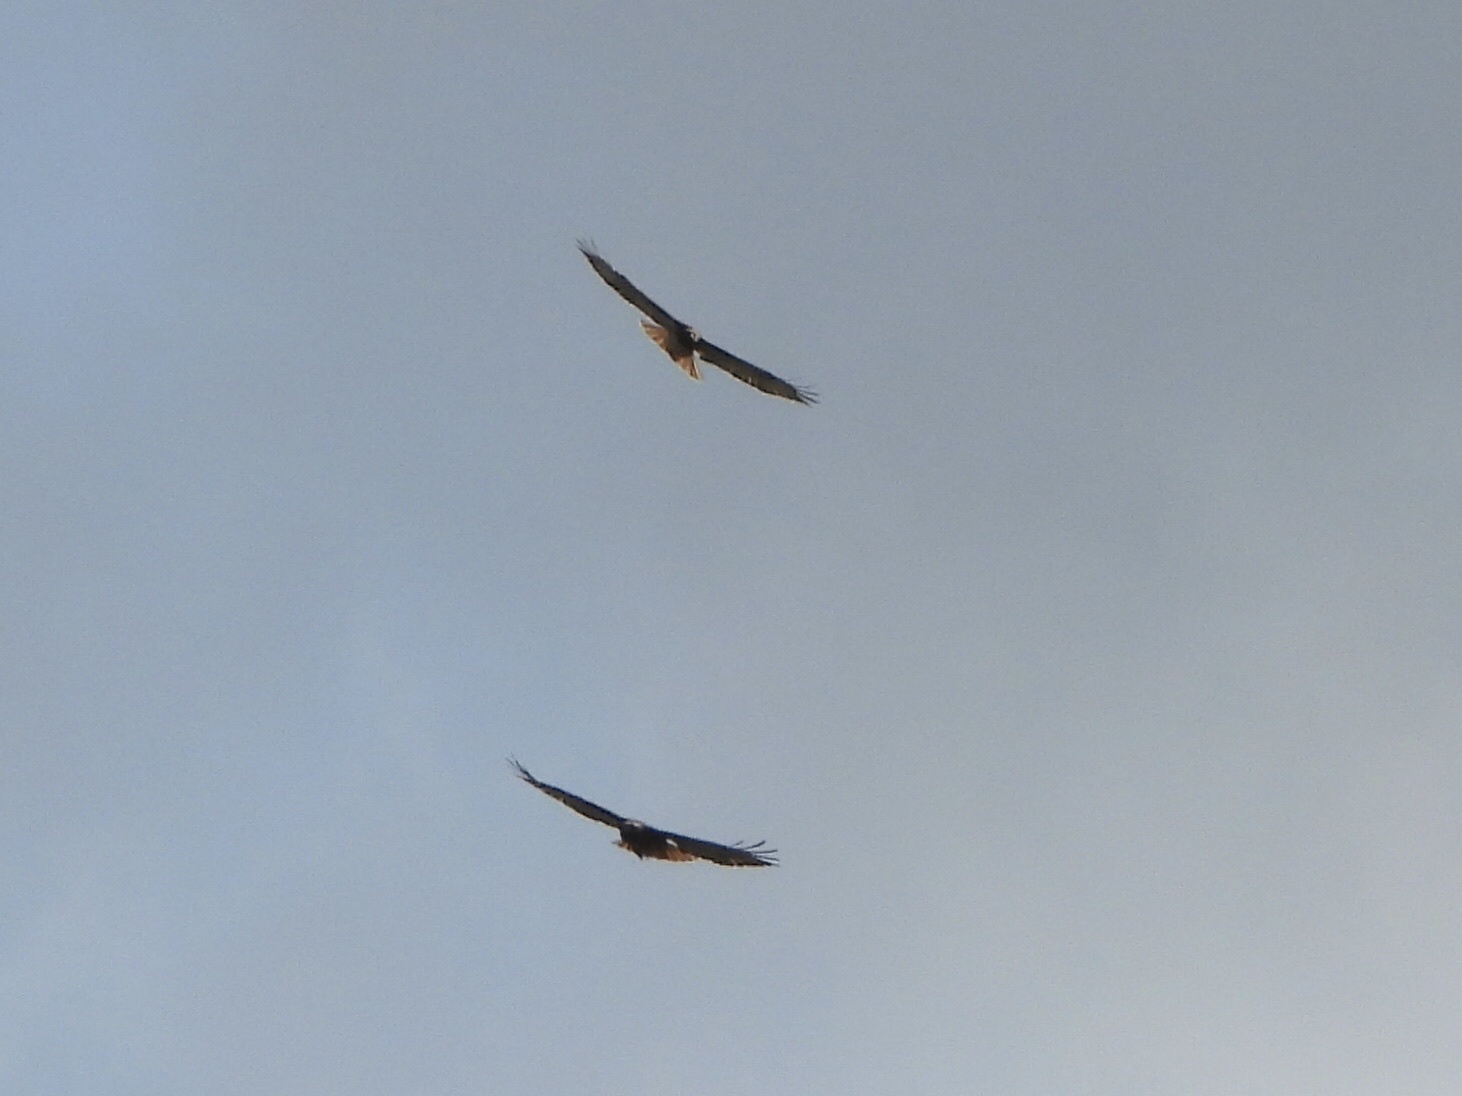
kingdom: Animalia
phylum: Chordata
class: Aves
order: Accipitriformes
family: Accipitridae
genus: Buteo
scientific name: Buteo jamaicensis
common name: Red-tailed hawk
